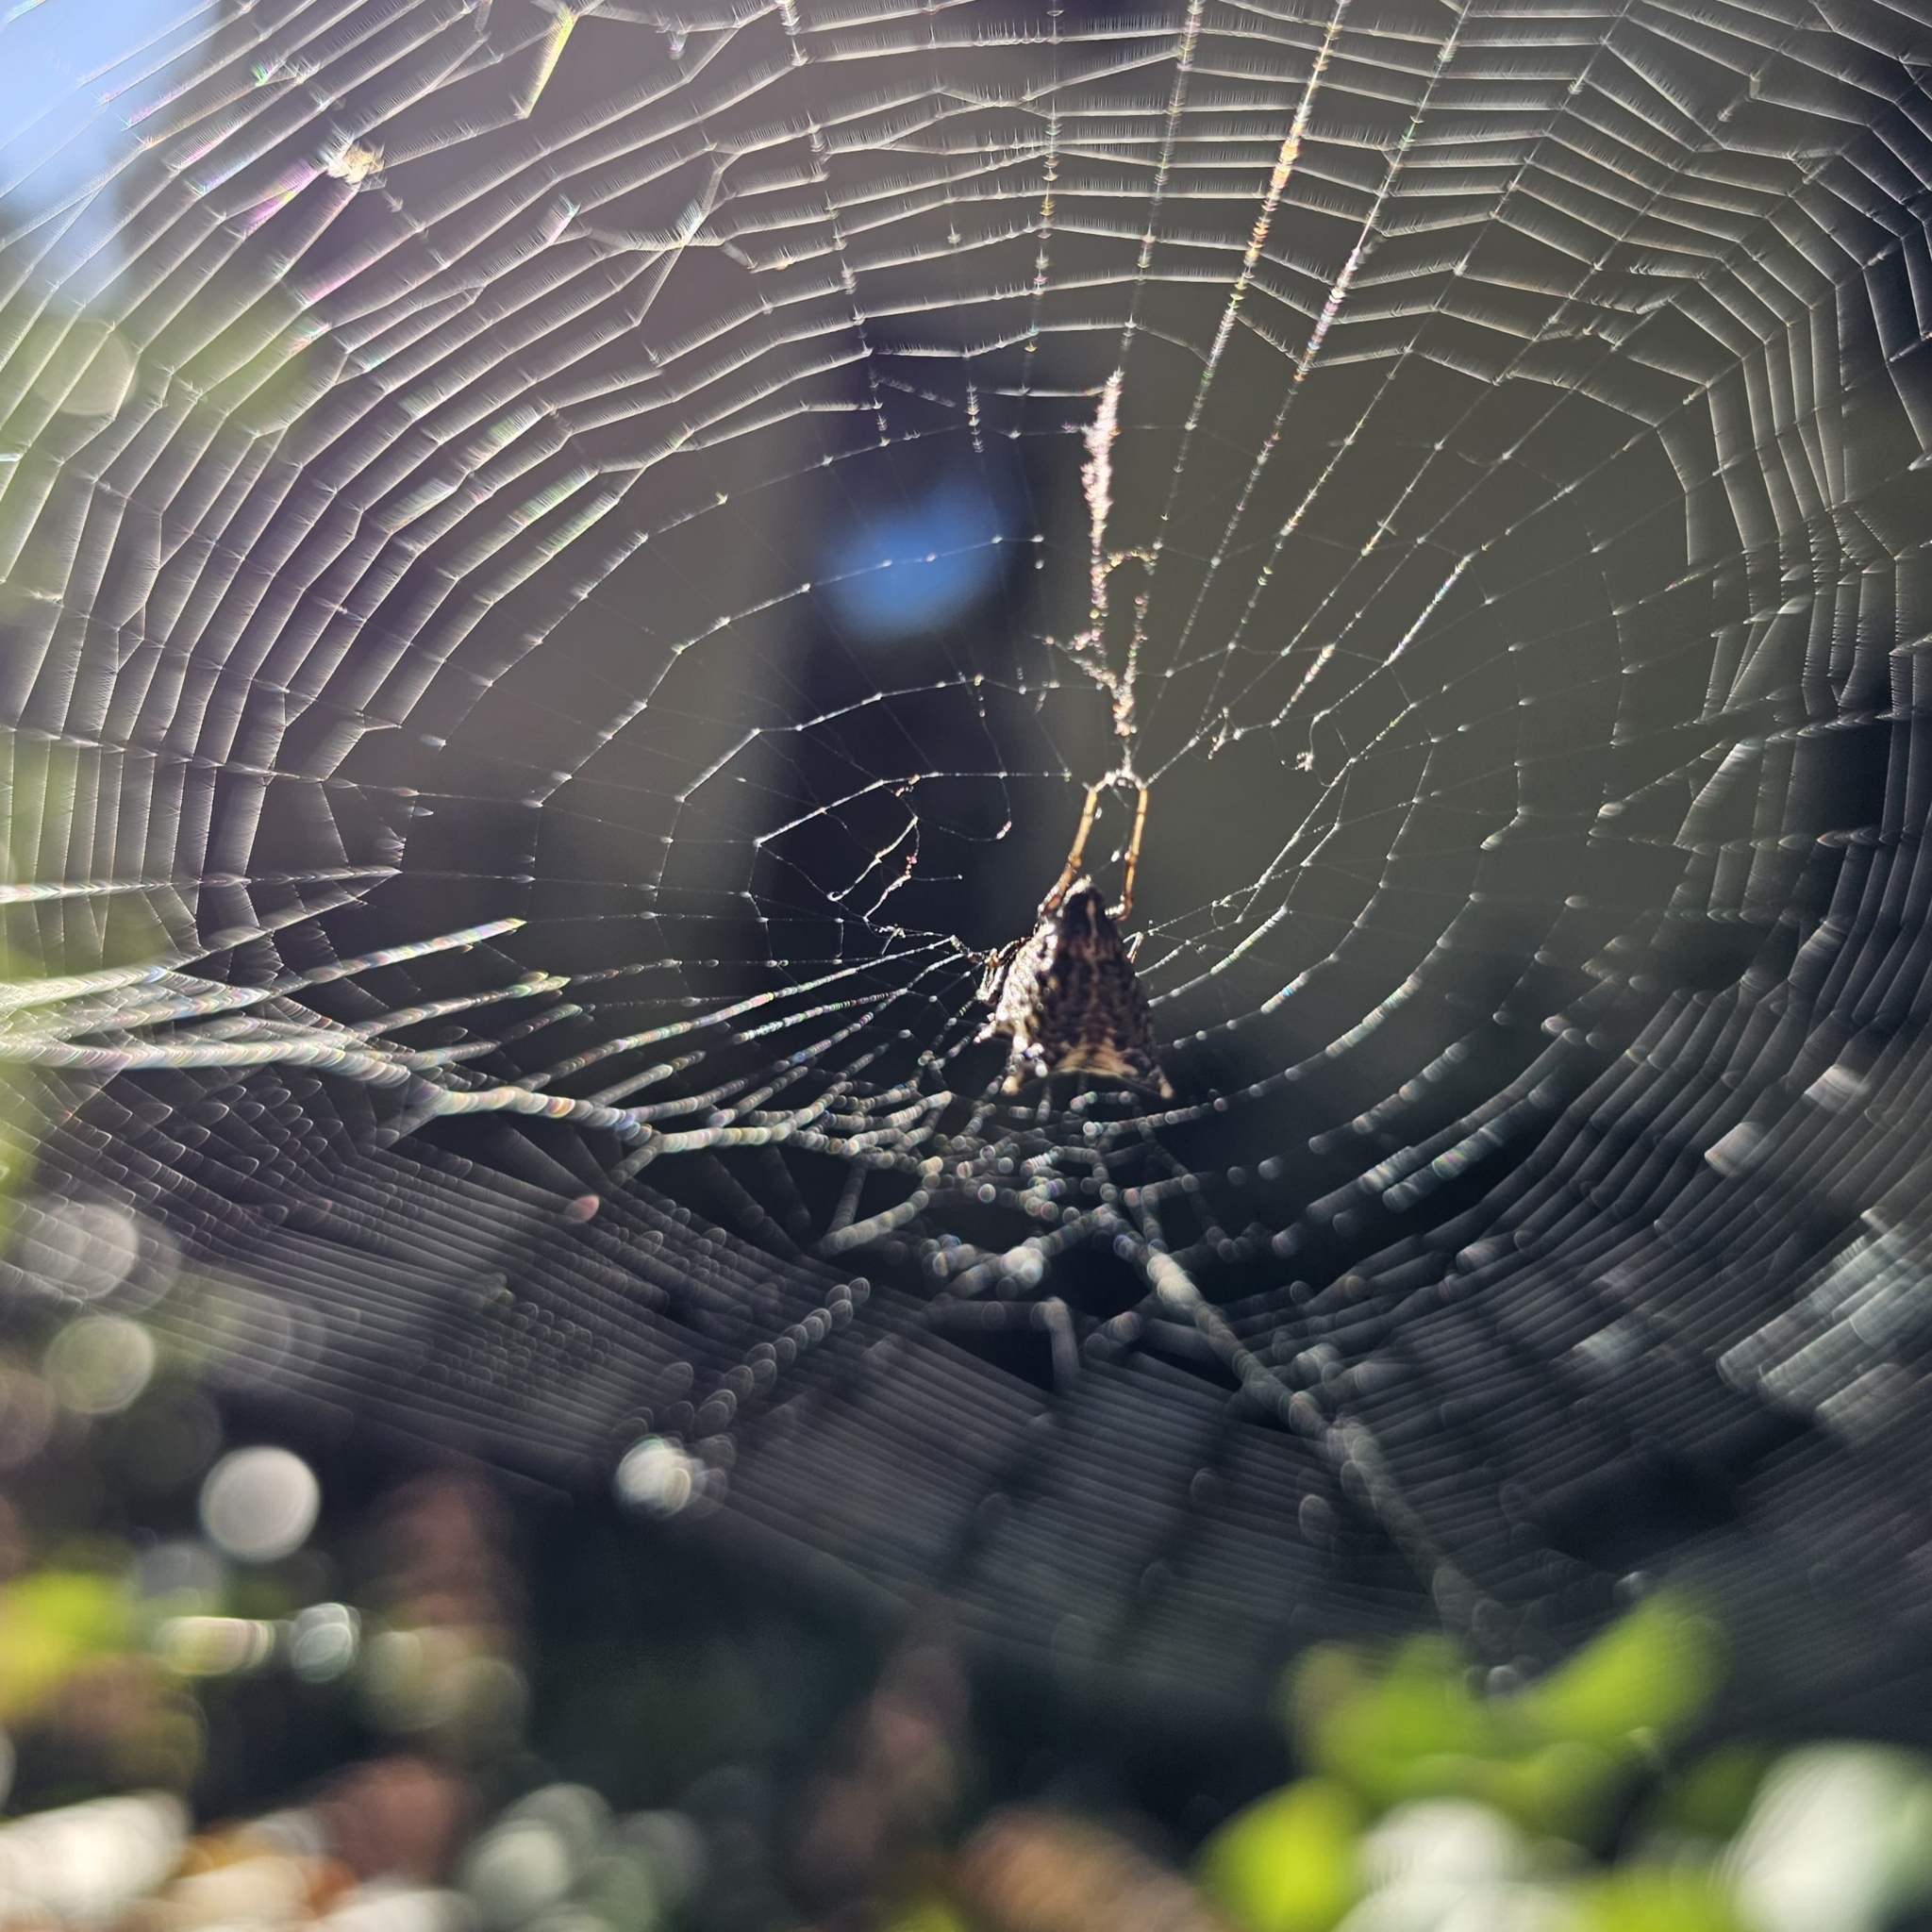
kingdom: Animalia
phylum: Arthropoda
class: Arachnida
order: Araneae
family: Araneidae
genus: Micrathena
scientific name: Micrathena gracilis
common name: Orb weavers
